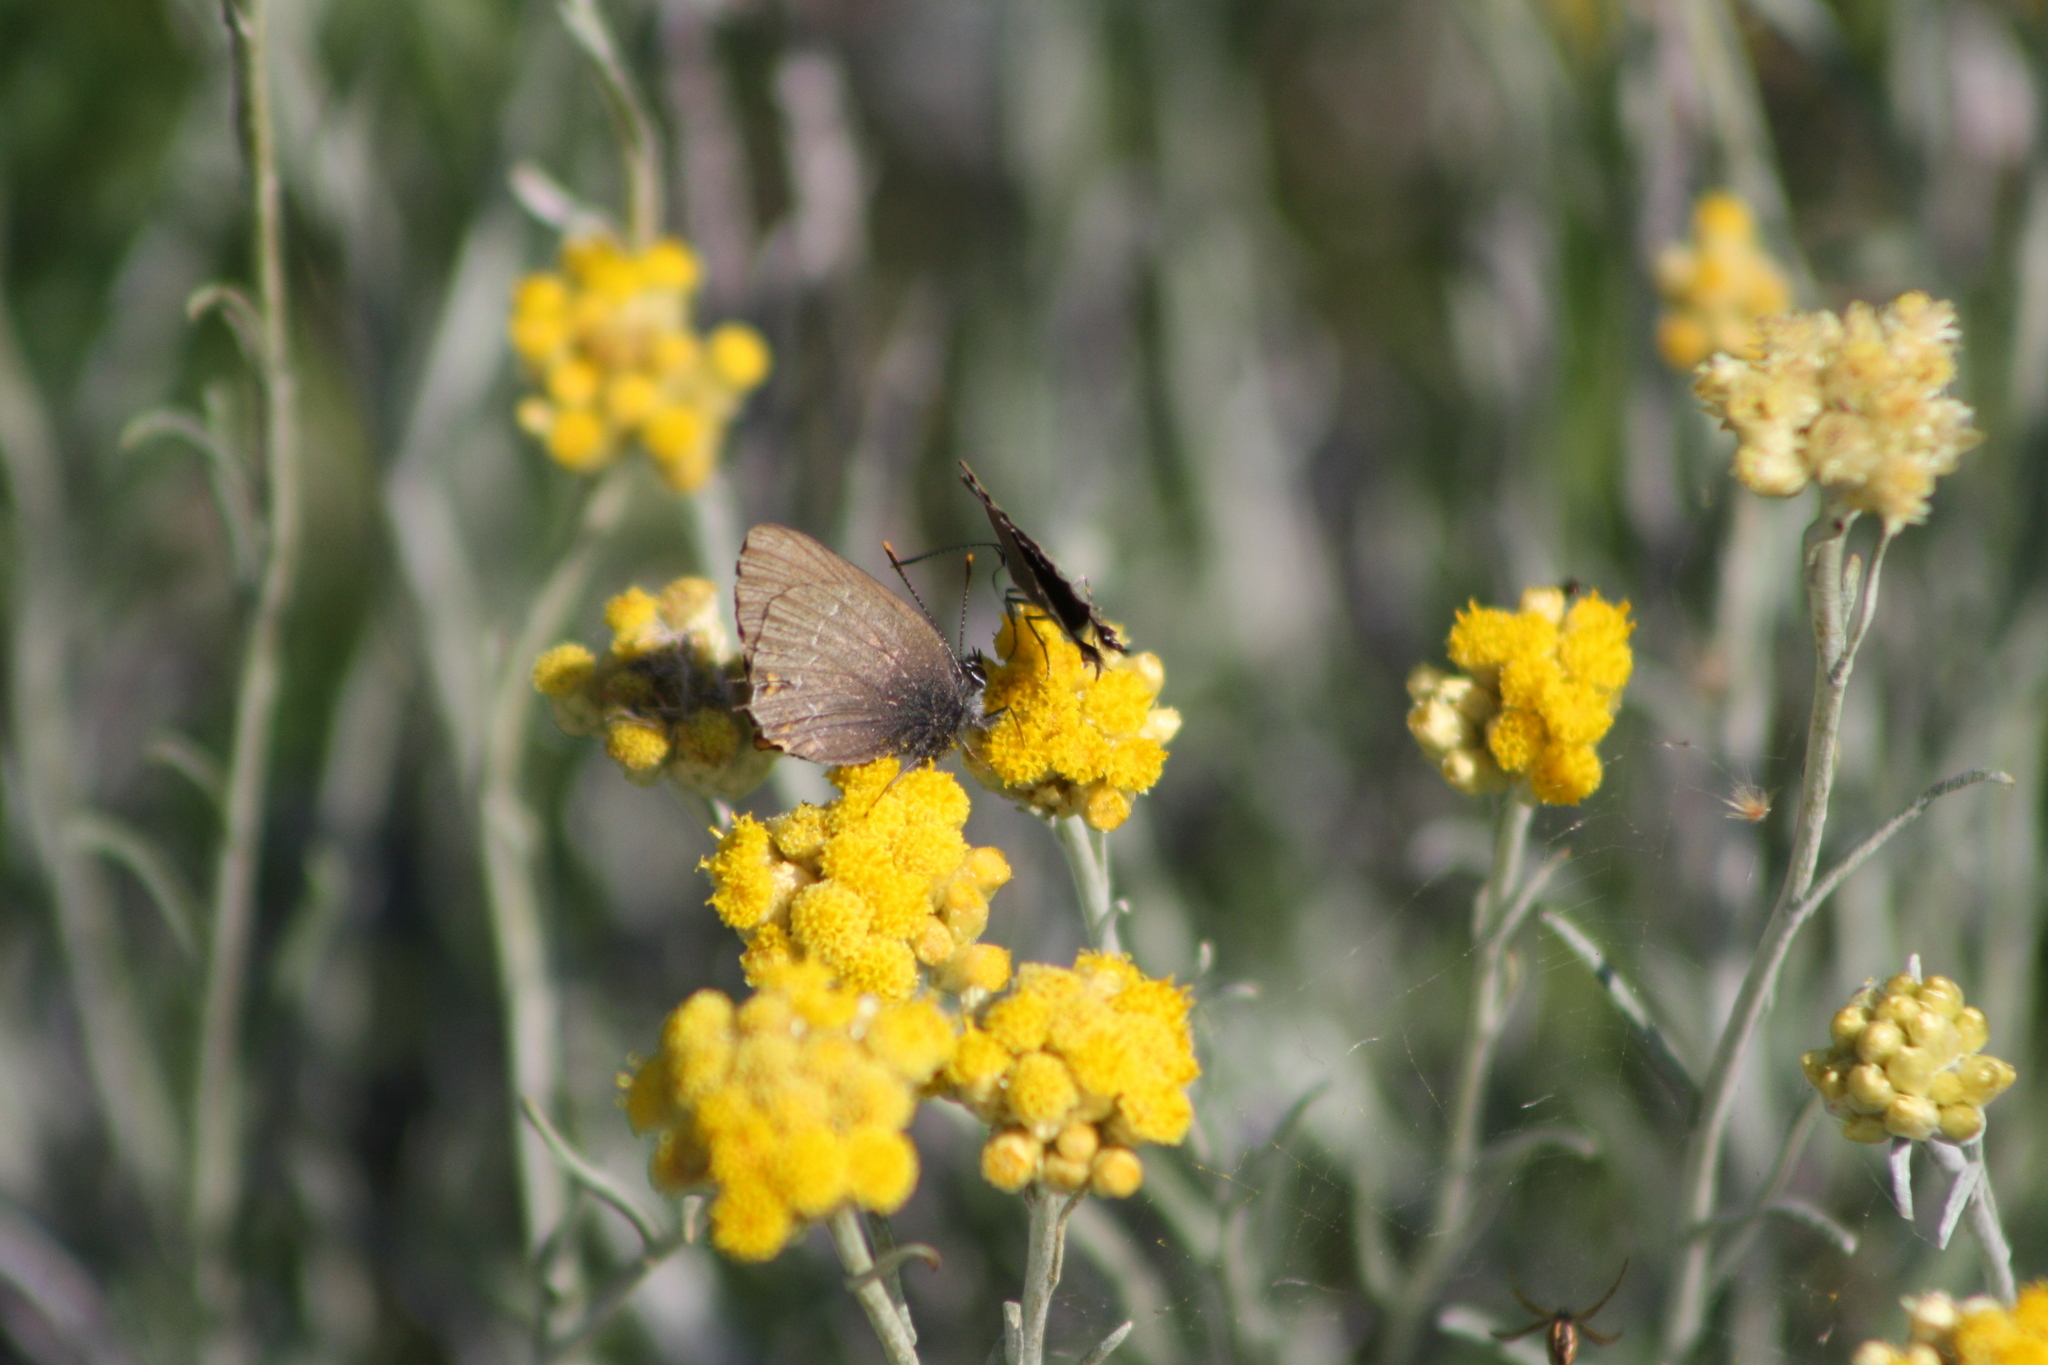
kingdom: Animalia
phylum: Arthropoda
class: Insecta
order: Lepidoptera
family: Lycaenidae
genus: Nordmannia
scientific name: Nordmannia ilicis
